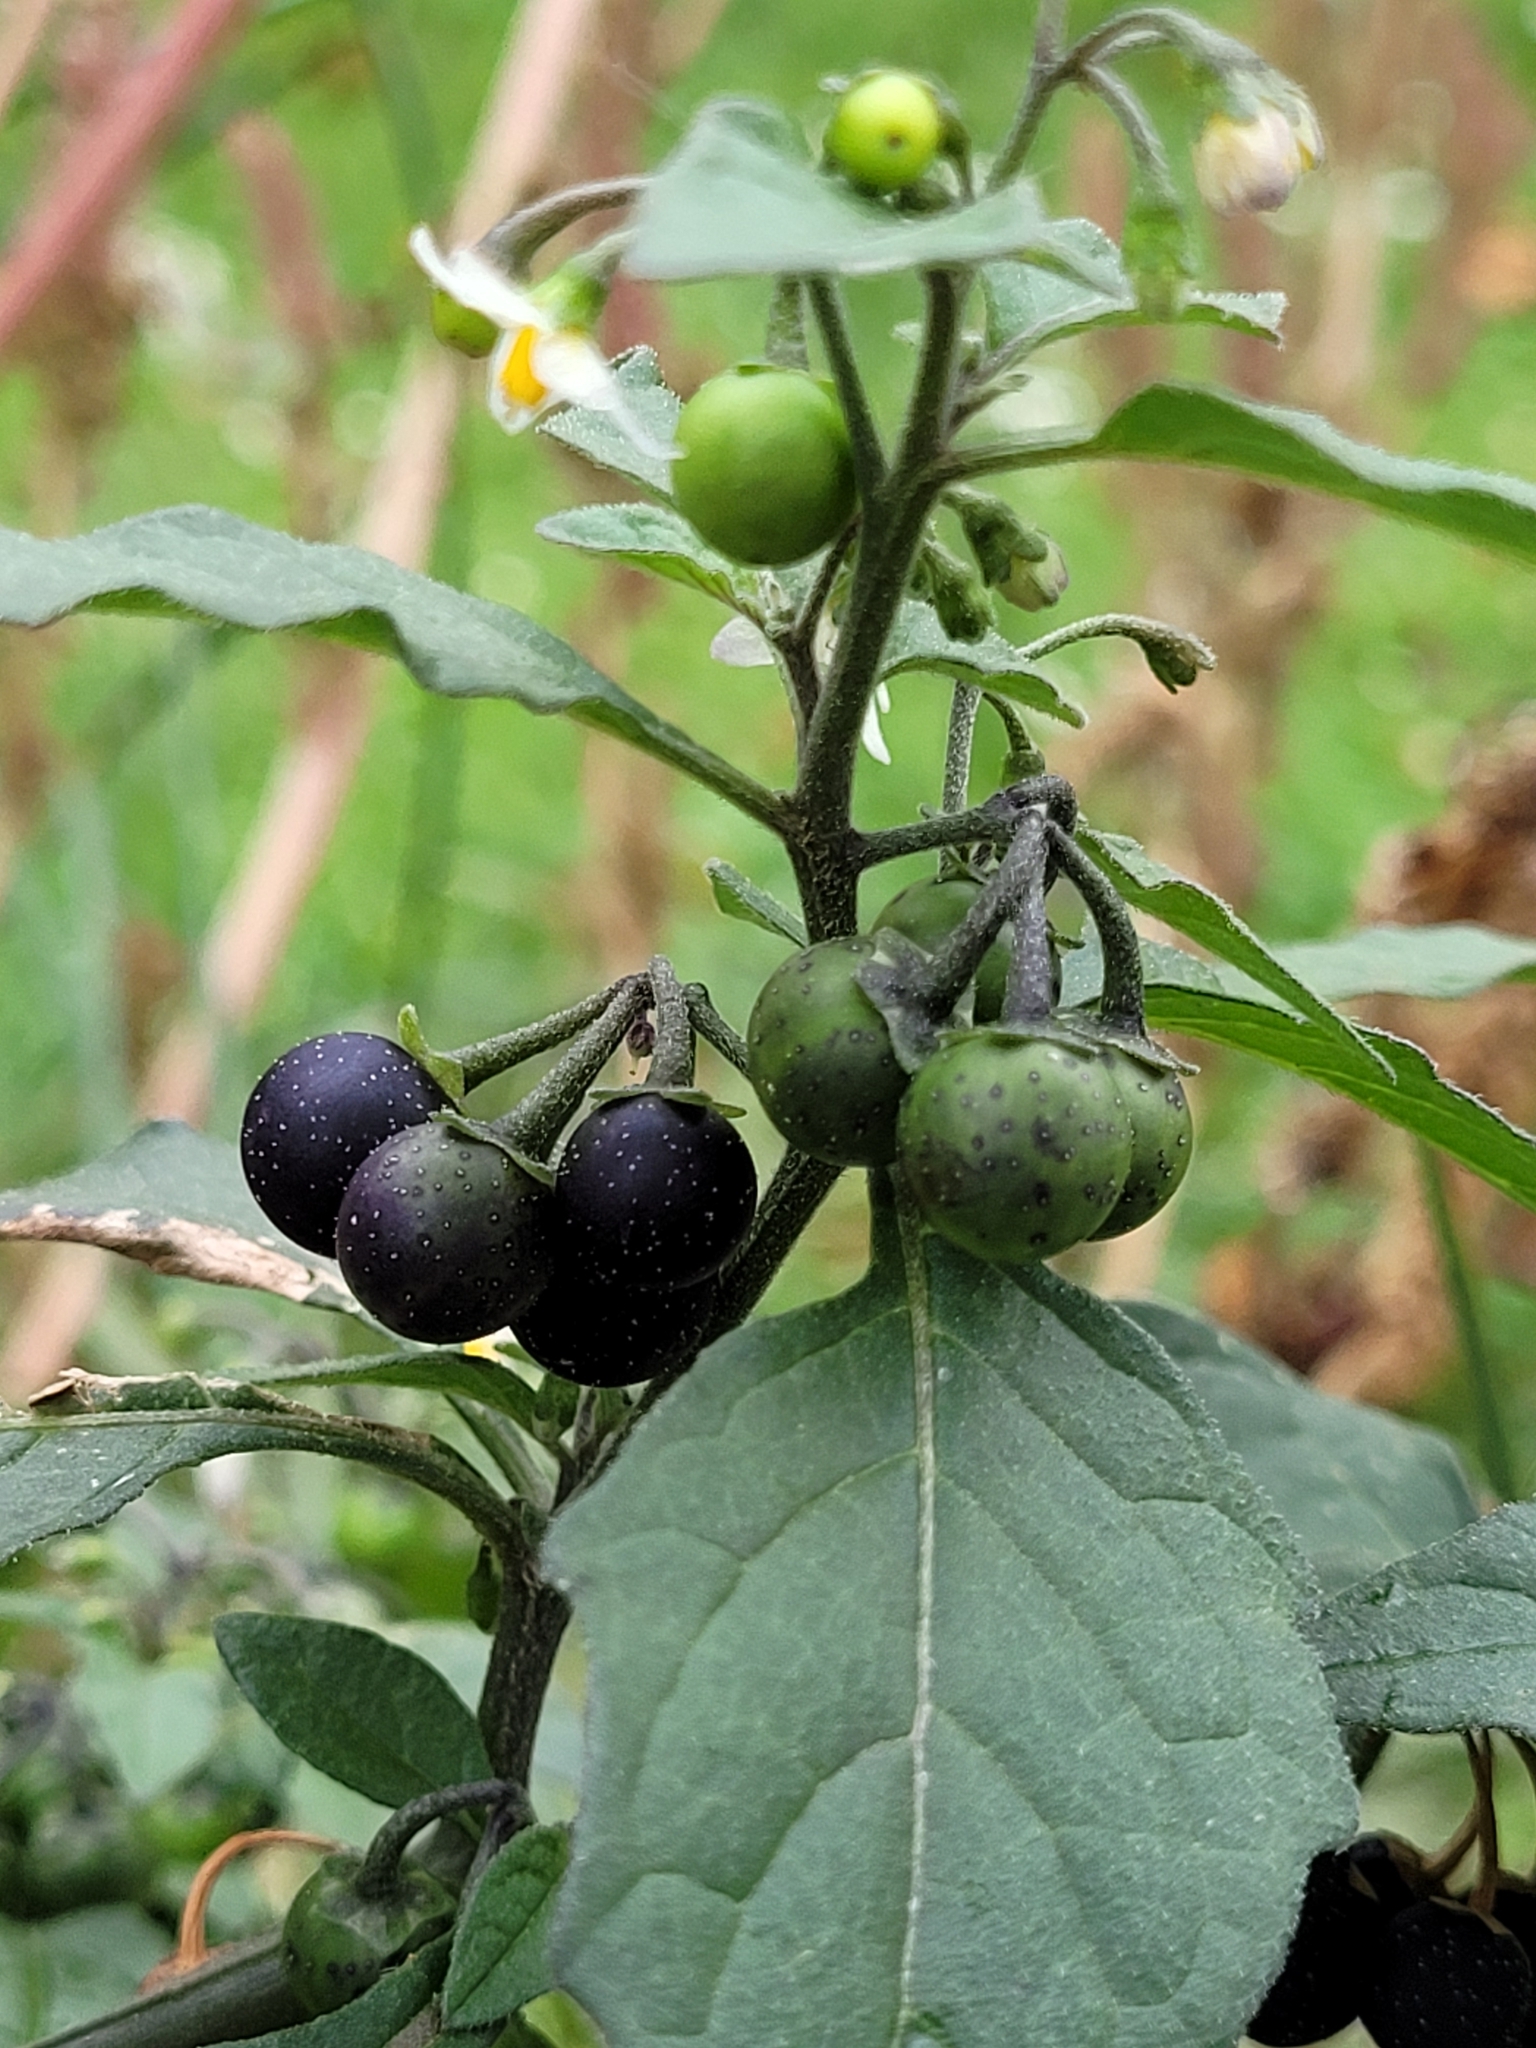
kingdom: Plantae
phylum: Tracheophyta
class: Magnoliopsida
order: Solanales
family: Solanaceae
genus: Solanum
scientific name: Solanum nigrum
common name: Black nightshade
